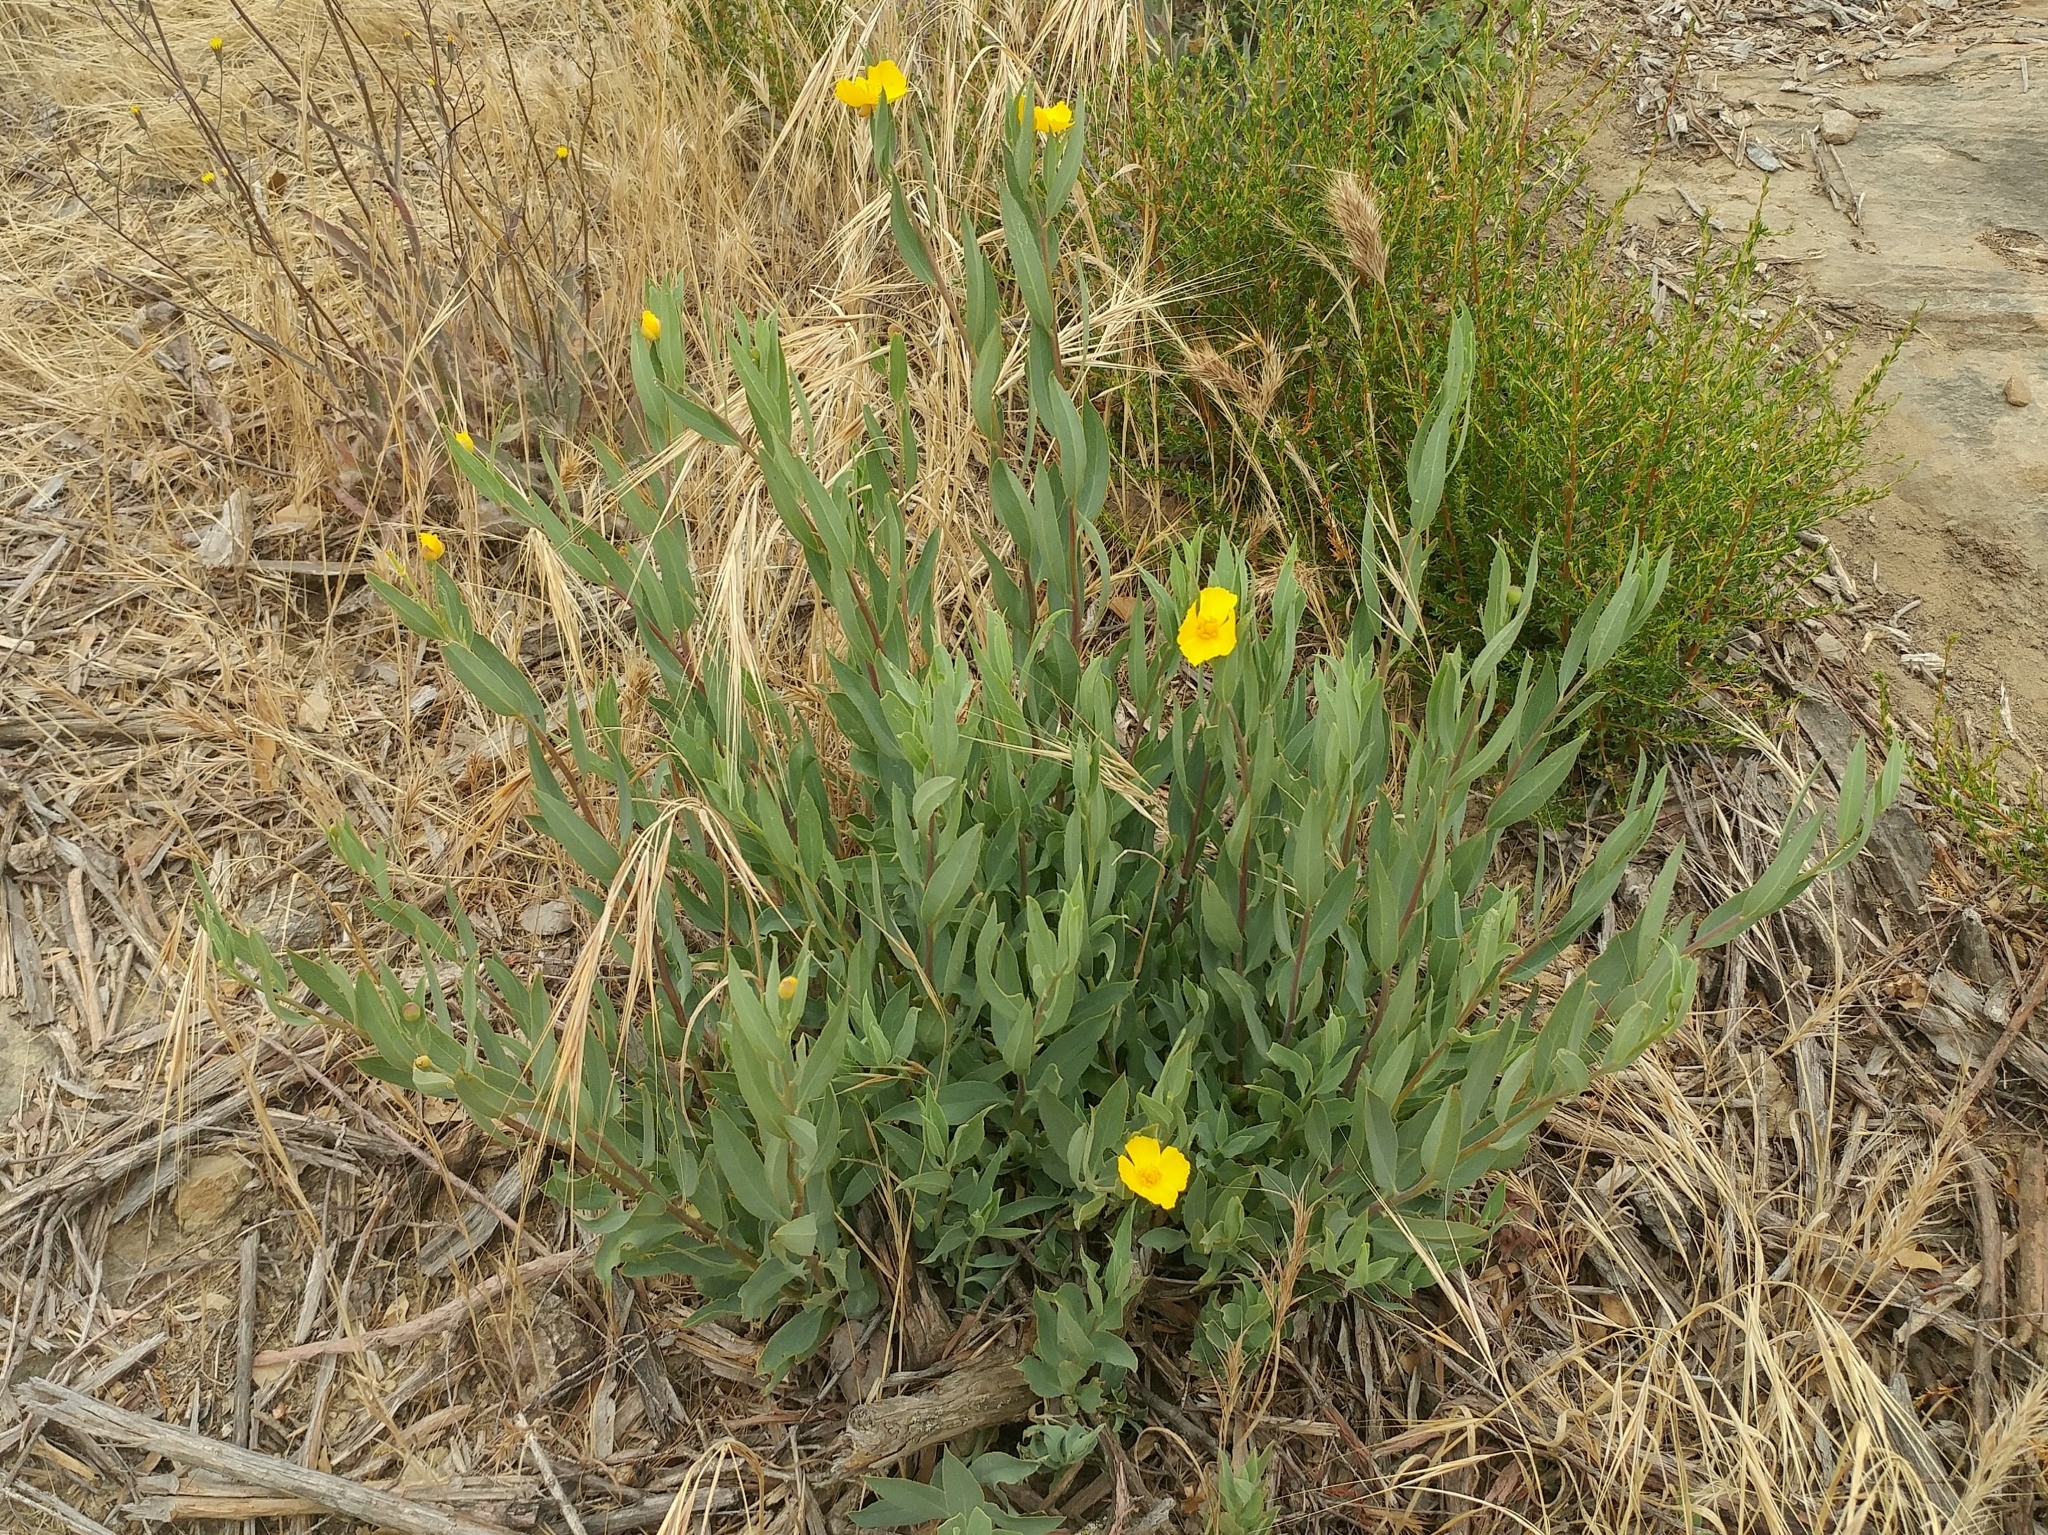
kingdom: Plantae
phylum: Tracheophyta
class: Magnoliopsida
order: Ranunculales
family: Papaveraceae
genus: Dendromecon
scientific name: Dendromecon rigida
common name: Tree poppy
